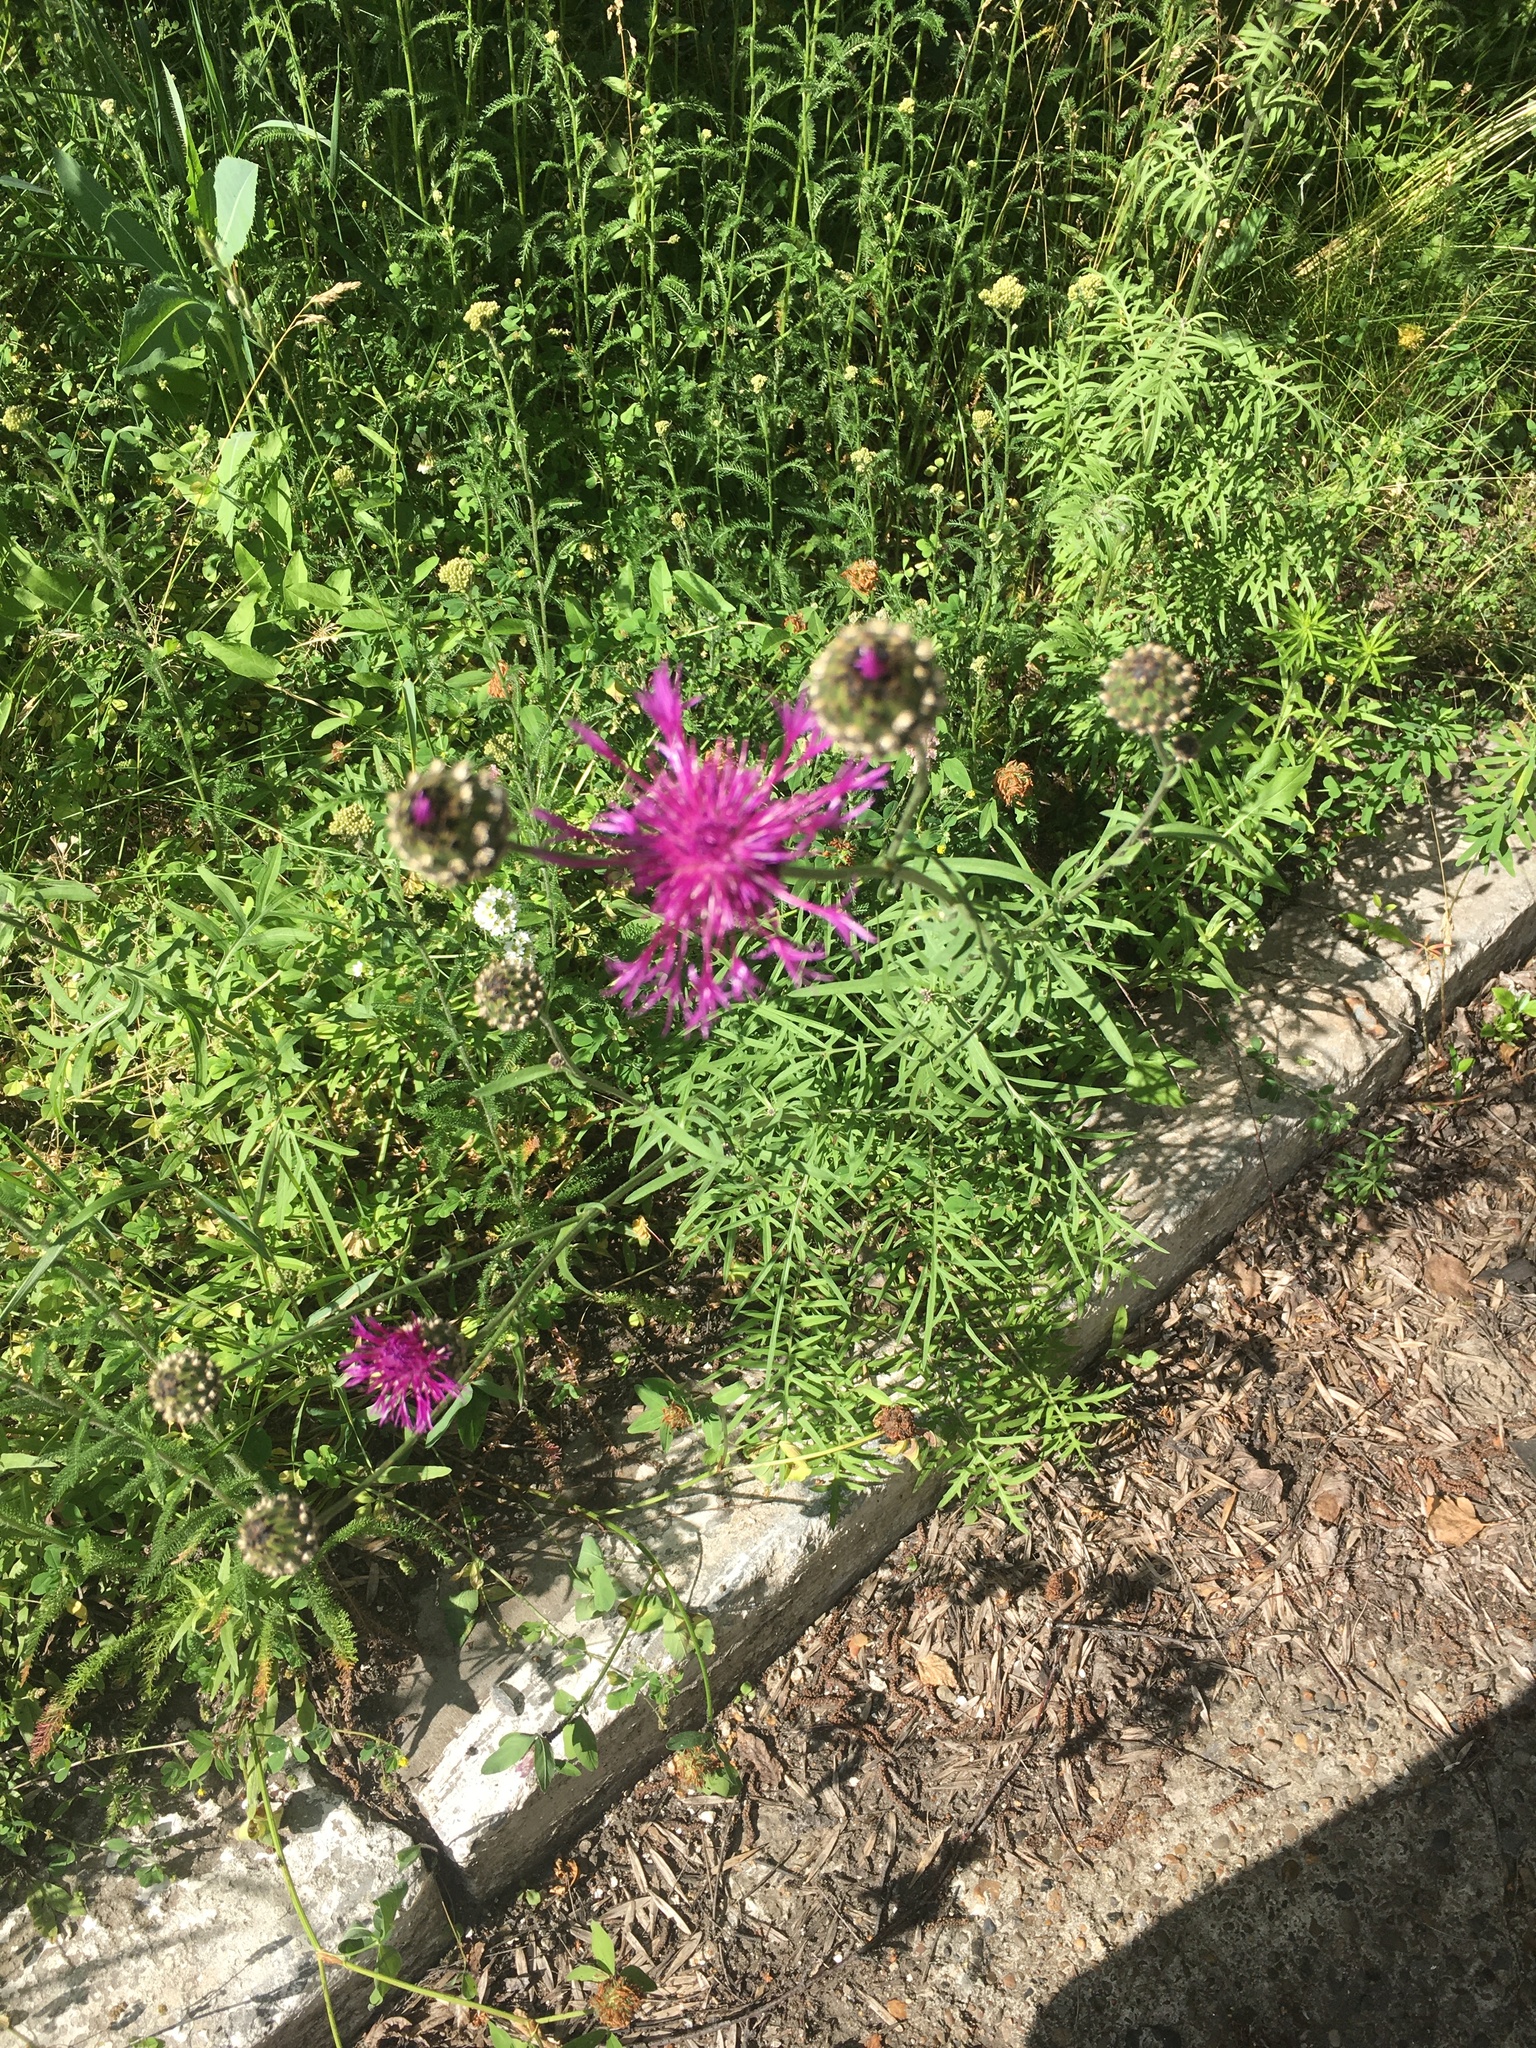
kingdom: Plantae
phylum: Tracheophyta
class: Magnoliopsida
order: Asterales
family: Asteraceae
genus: Centaurea
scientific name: Centaurea scabiosa
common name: Greater knapweed
